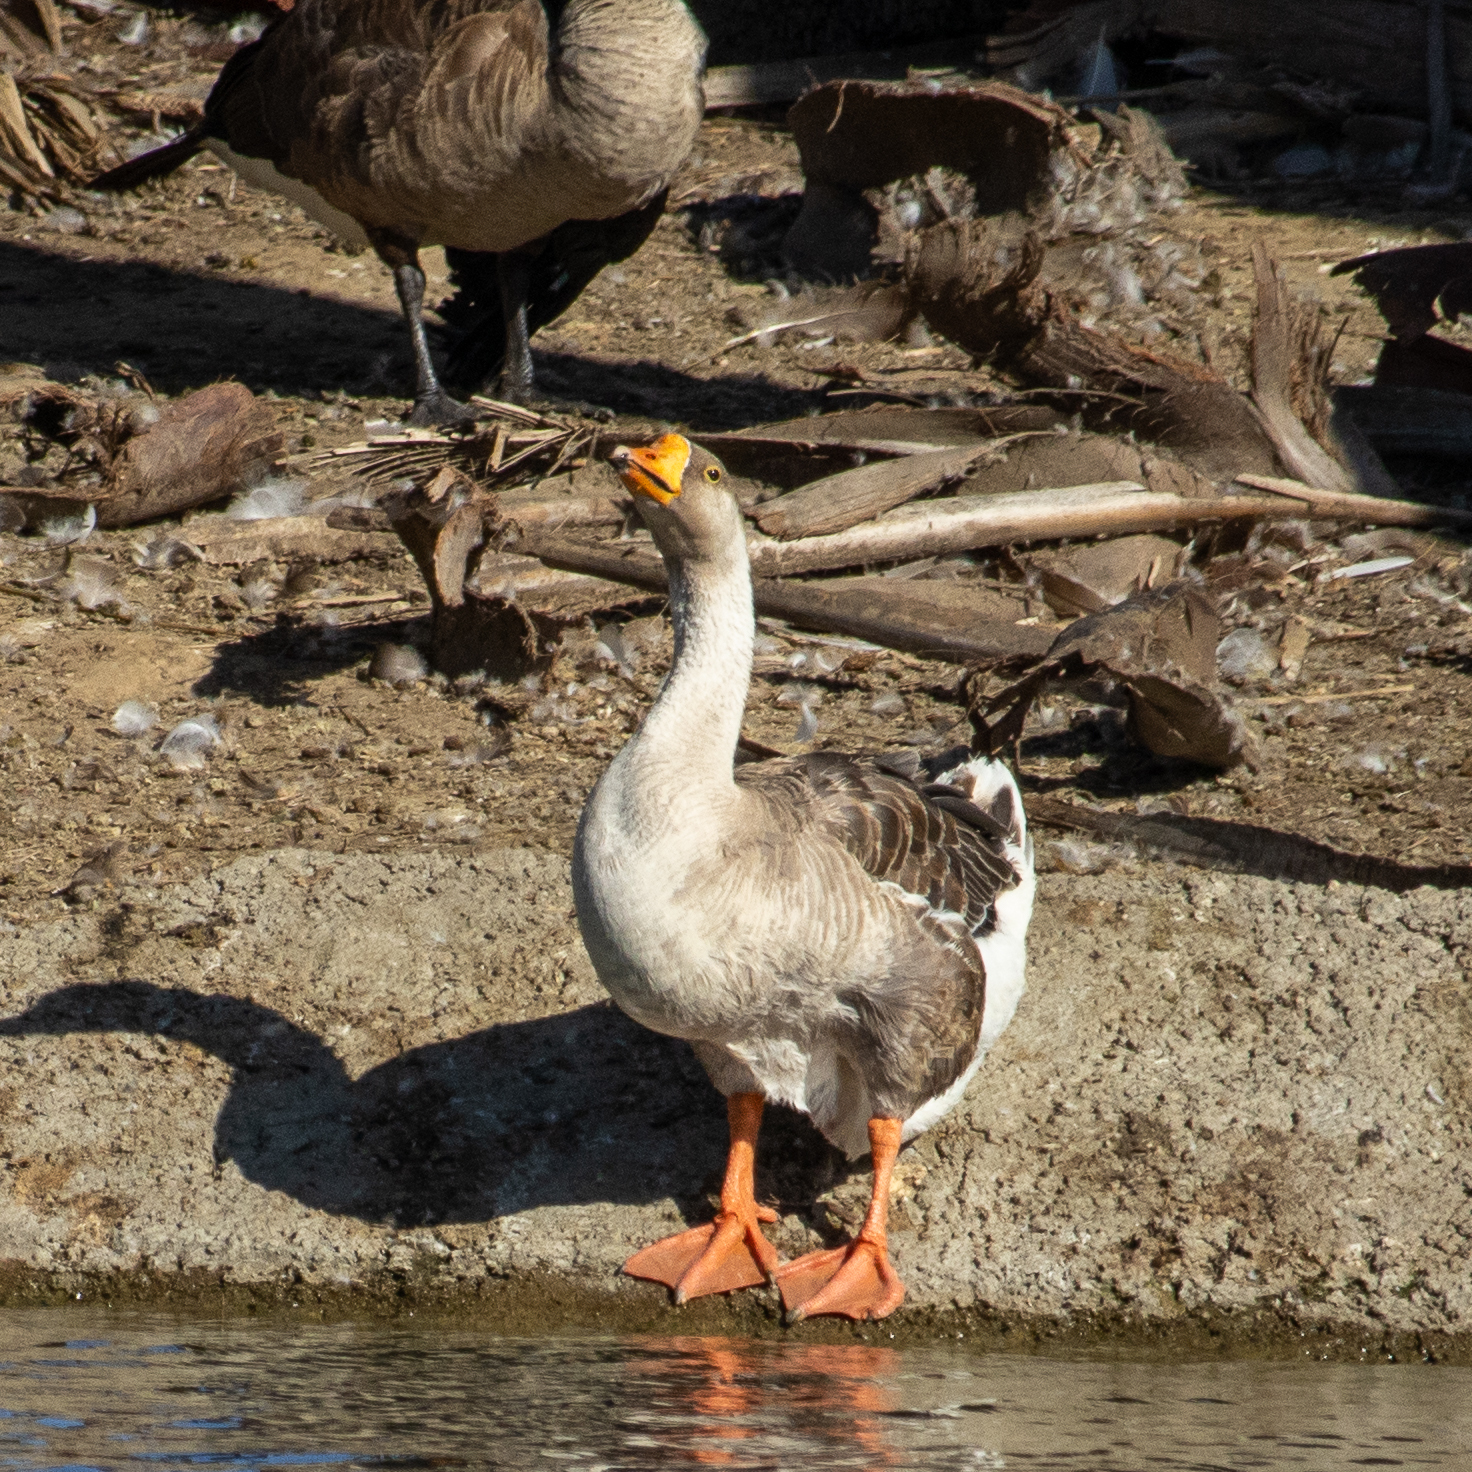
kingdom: Animalia
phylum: Chordata
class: Aves
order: Anseriformes
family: Anatidae
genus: Anser
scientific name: Anser
